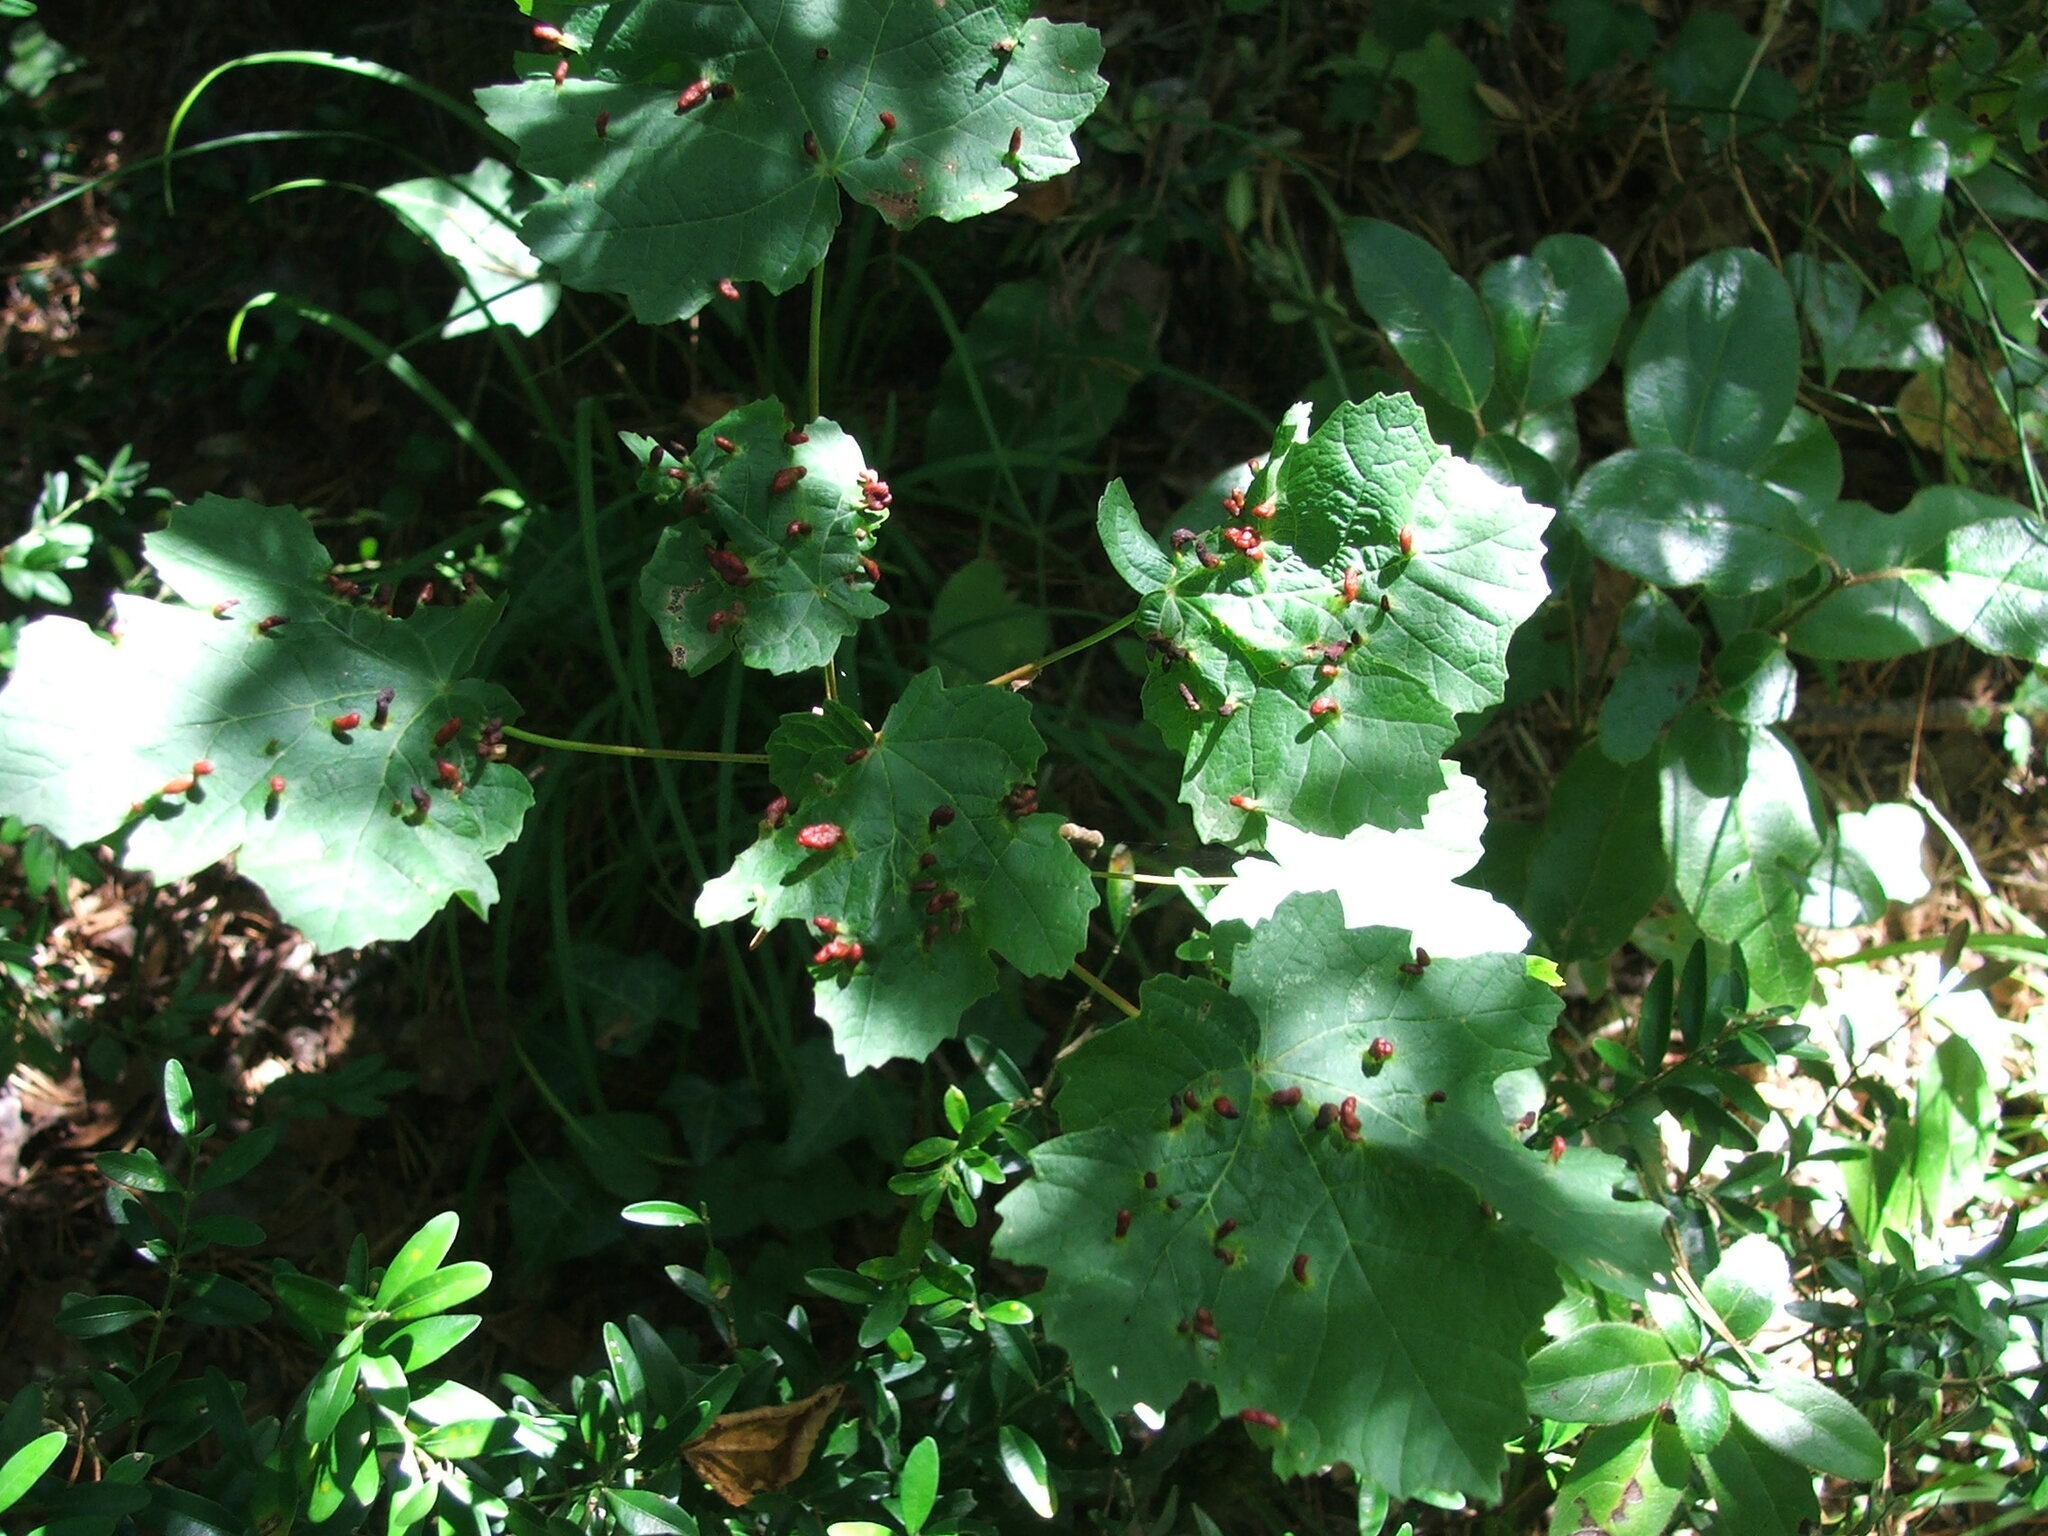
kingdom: Animalia
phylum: Arthropoda
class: Arachnida
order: Trombidiformes
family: Eriophyidae
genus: Aceria
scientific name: Aceria opulifolii
